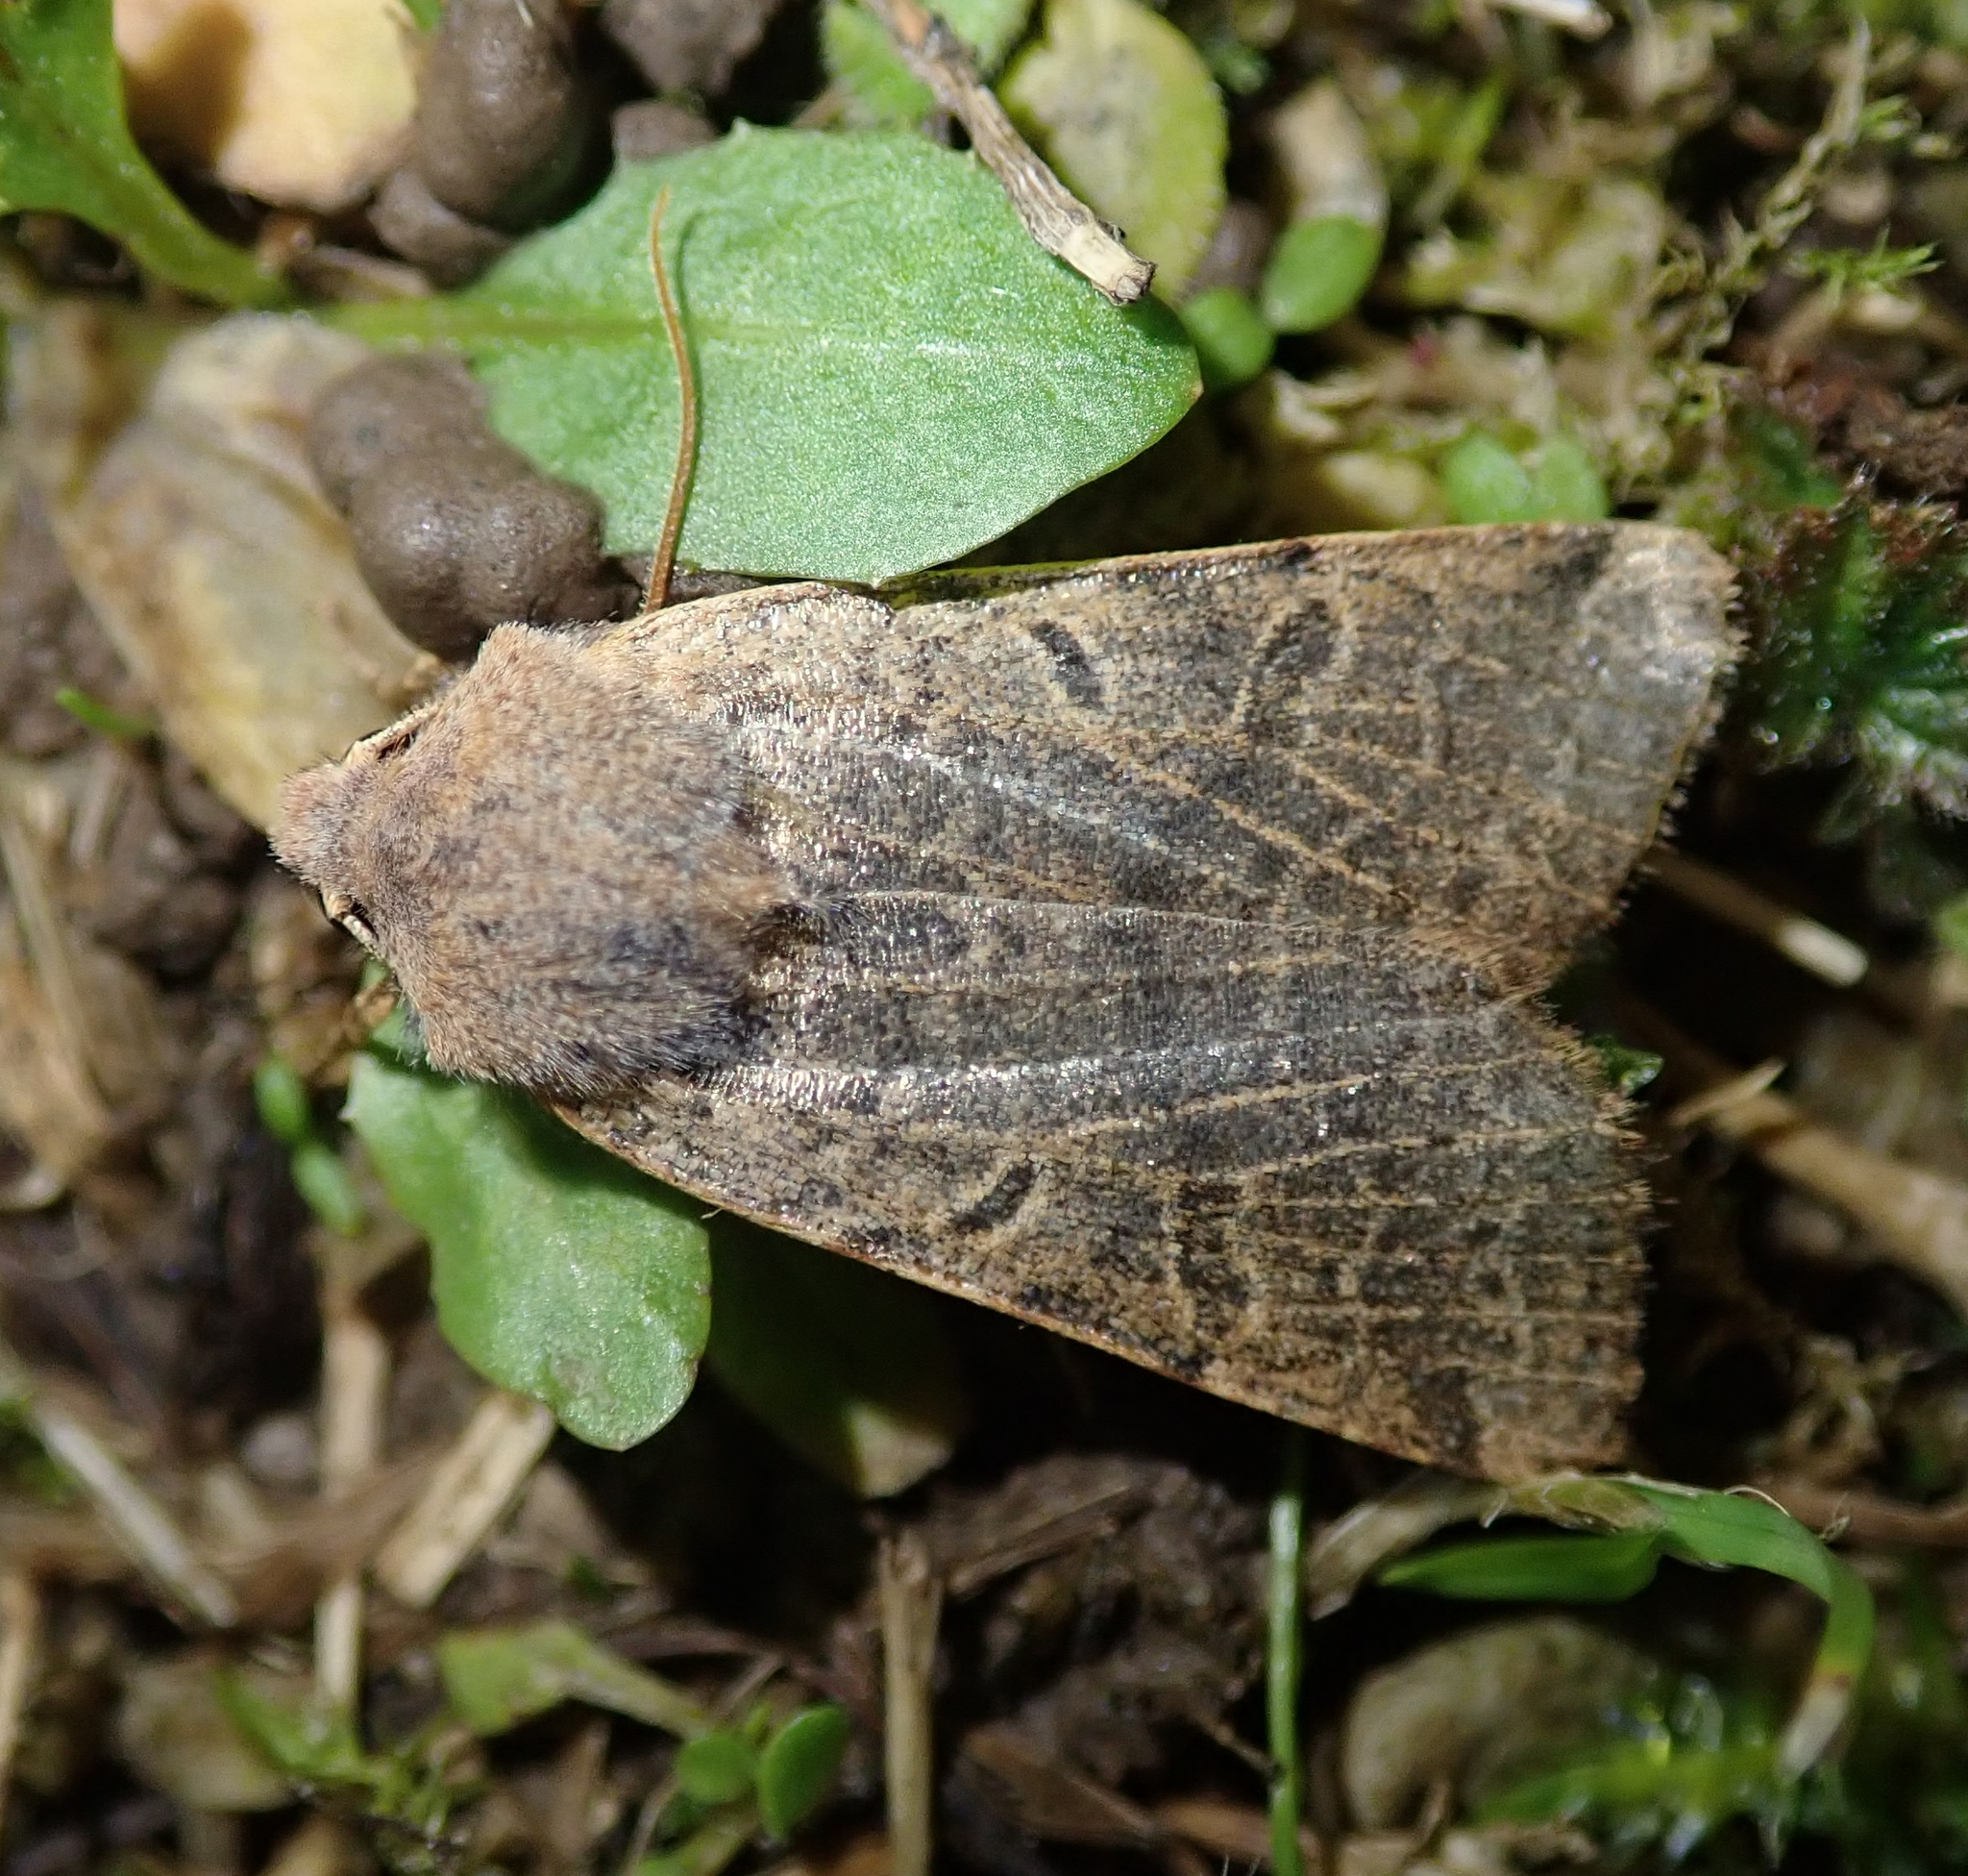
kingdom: Animalia
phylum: Arthropoda
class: Insecta
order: Lepidoptera
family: Noctuidae
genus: Agrochola
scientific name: Agrochola lunosa
